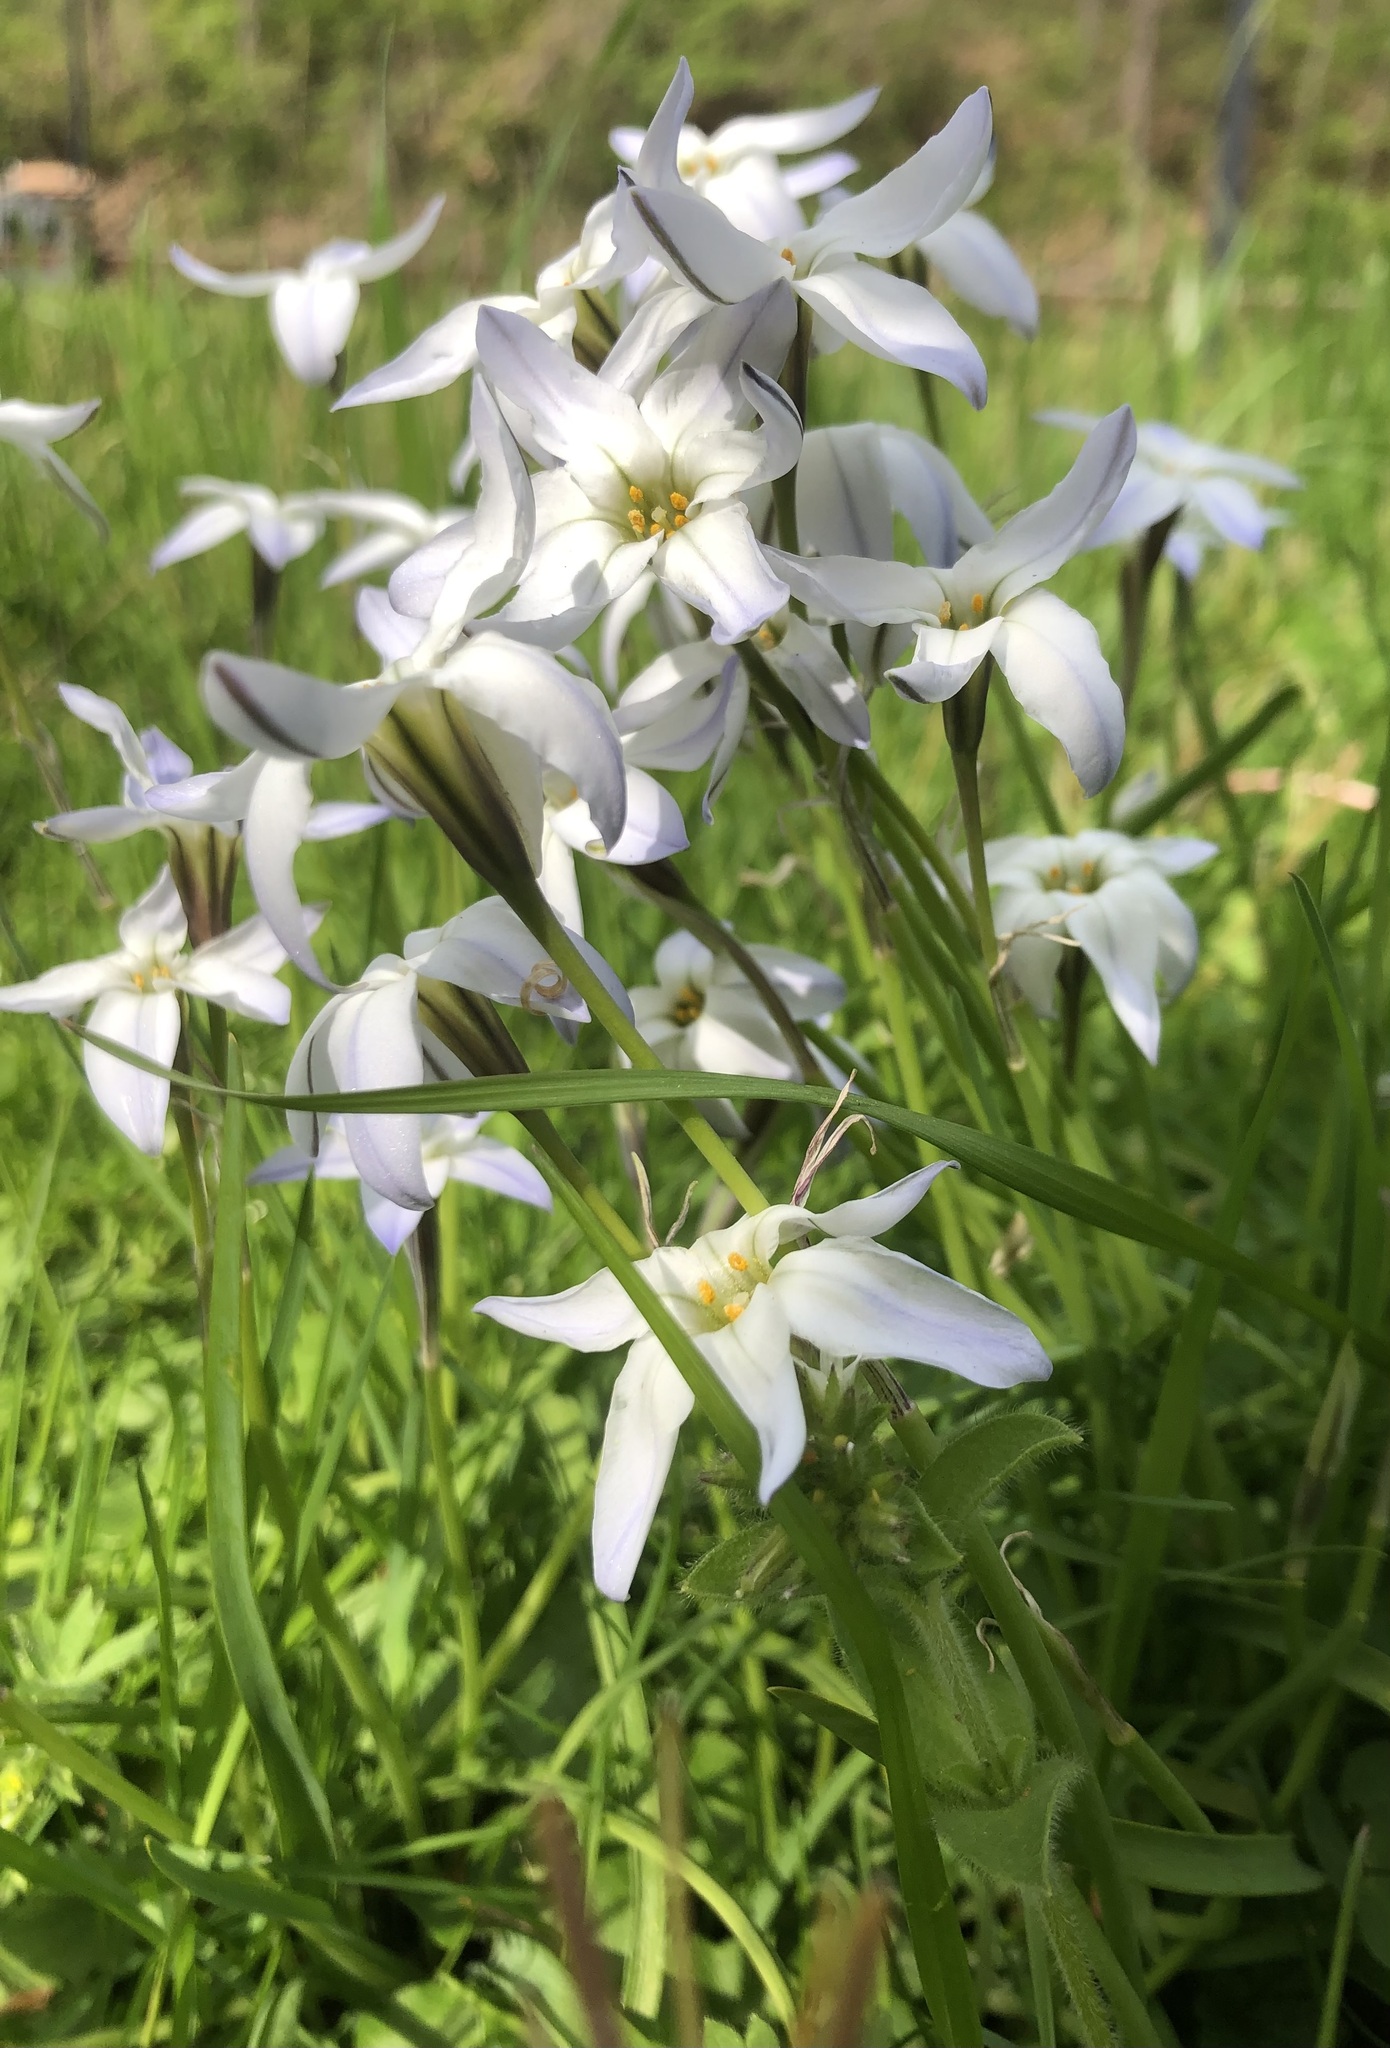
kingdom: Plantae
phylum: Tracheophyta
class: Liliopsida
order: Asparagales
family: Amaryllidaceae
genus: Ipheion
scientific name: Ipheion uniflorum
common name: Spring starflower
